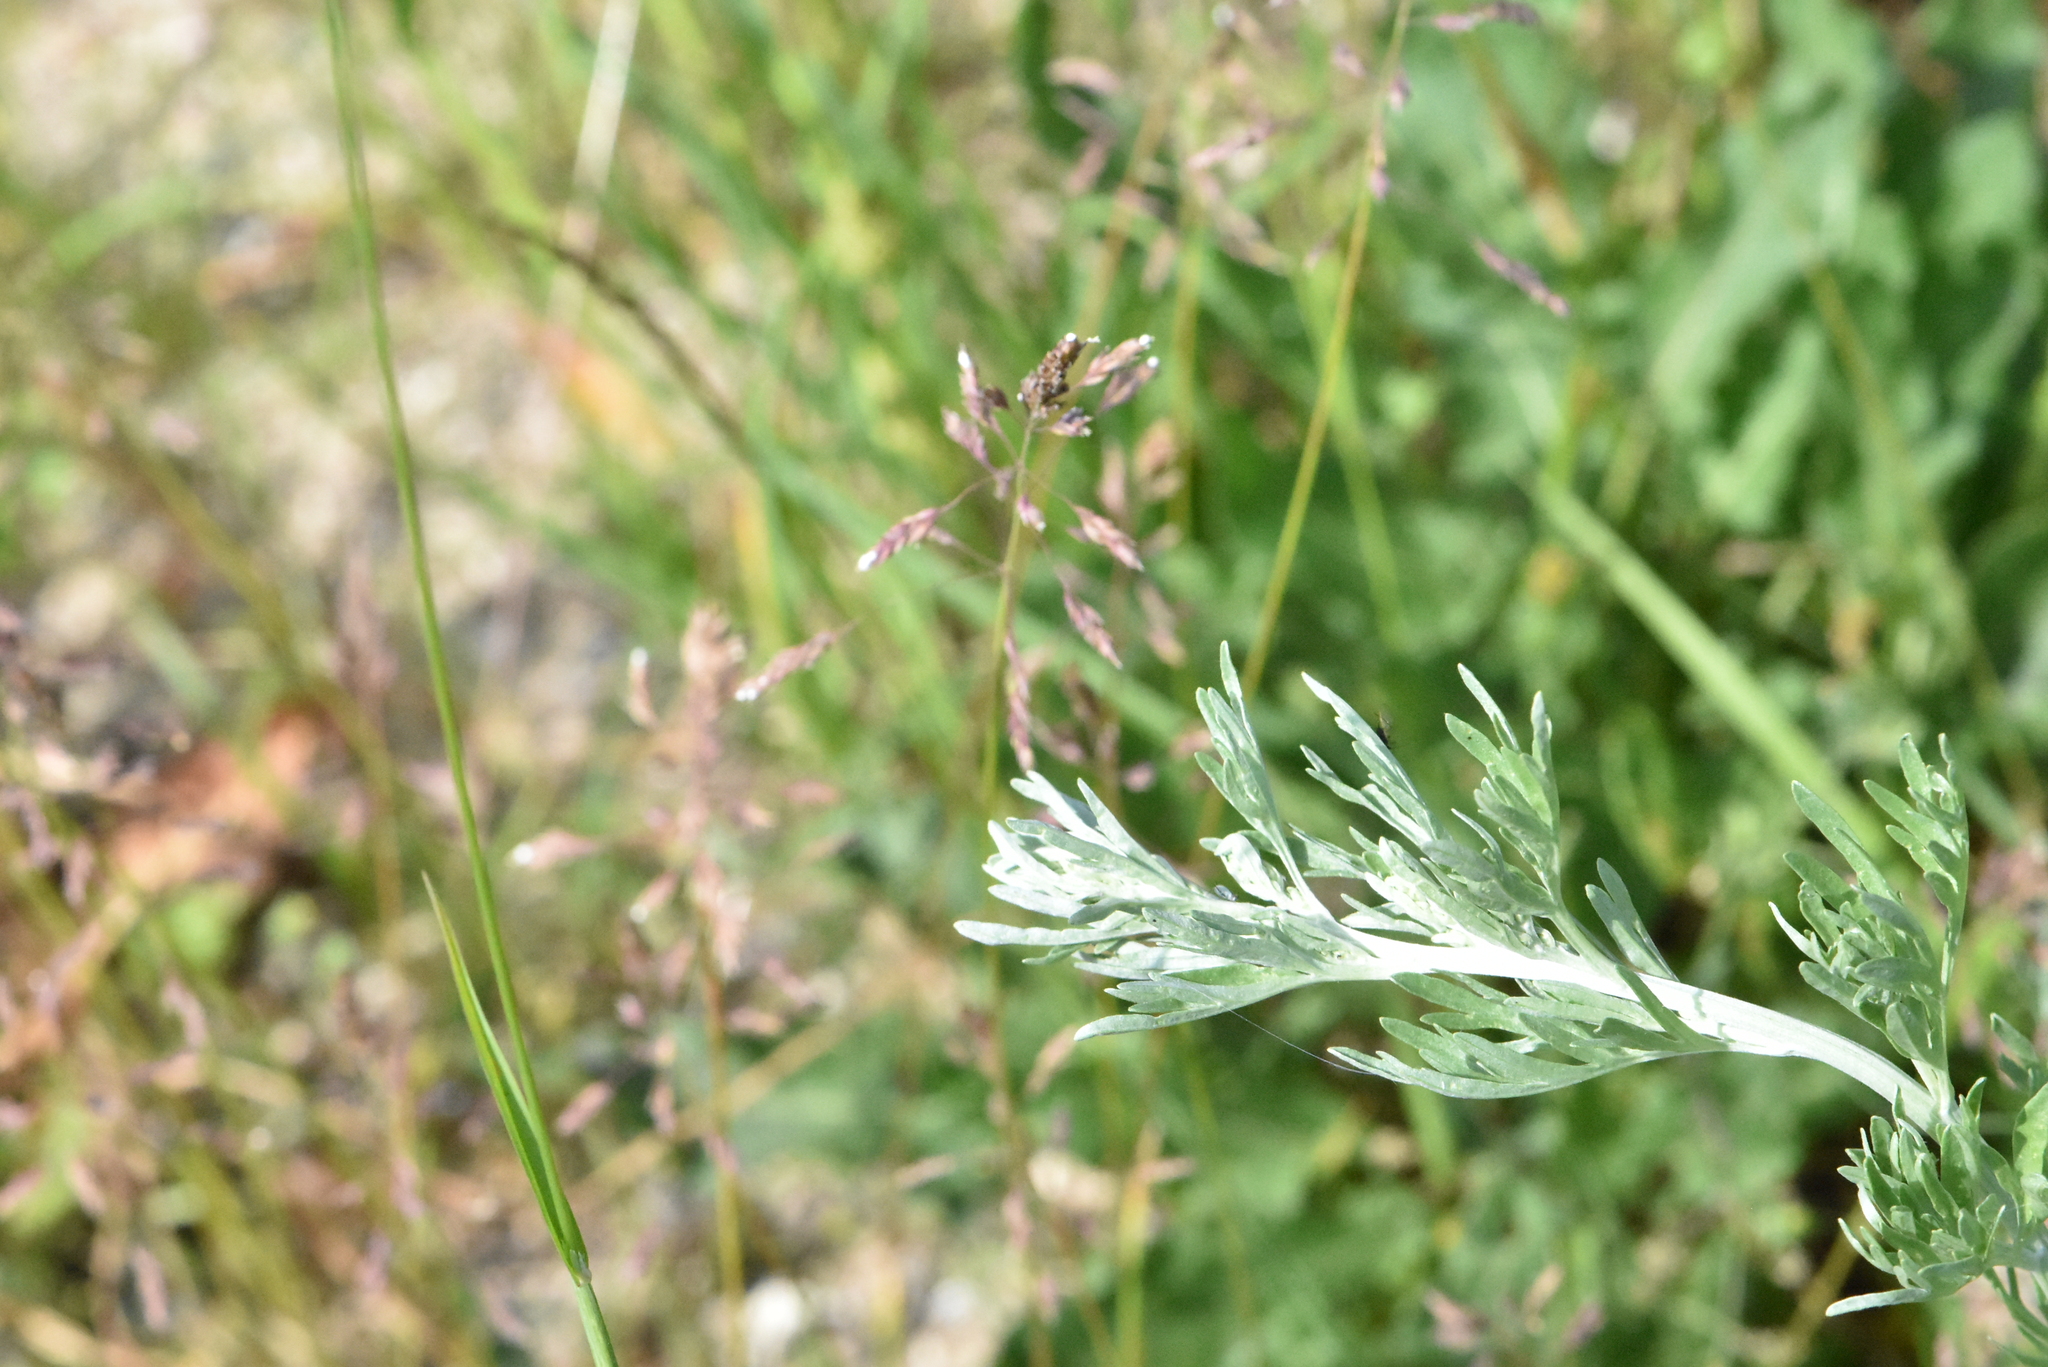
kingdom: Plantae
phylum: Tracheophyta
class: Magnoliopsida
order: Asterales
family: Asteraceae
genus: Artemisia
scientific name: Artemisia absinthium
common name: Wormwood
